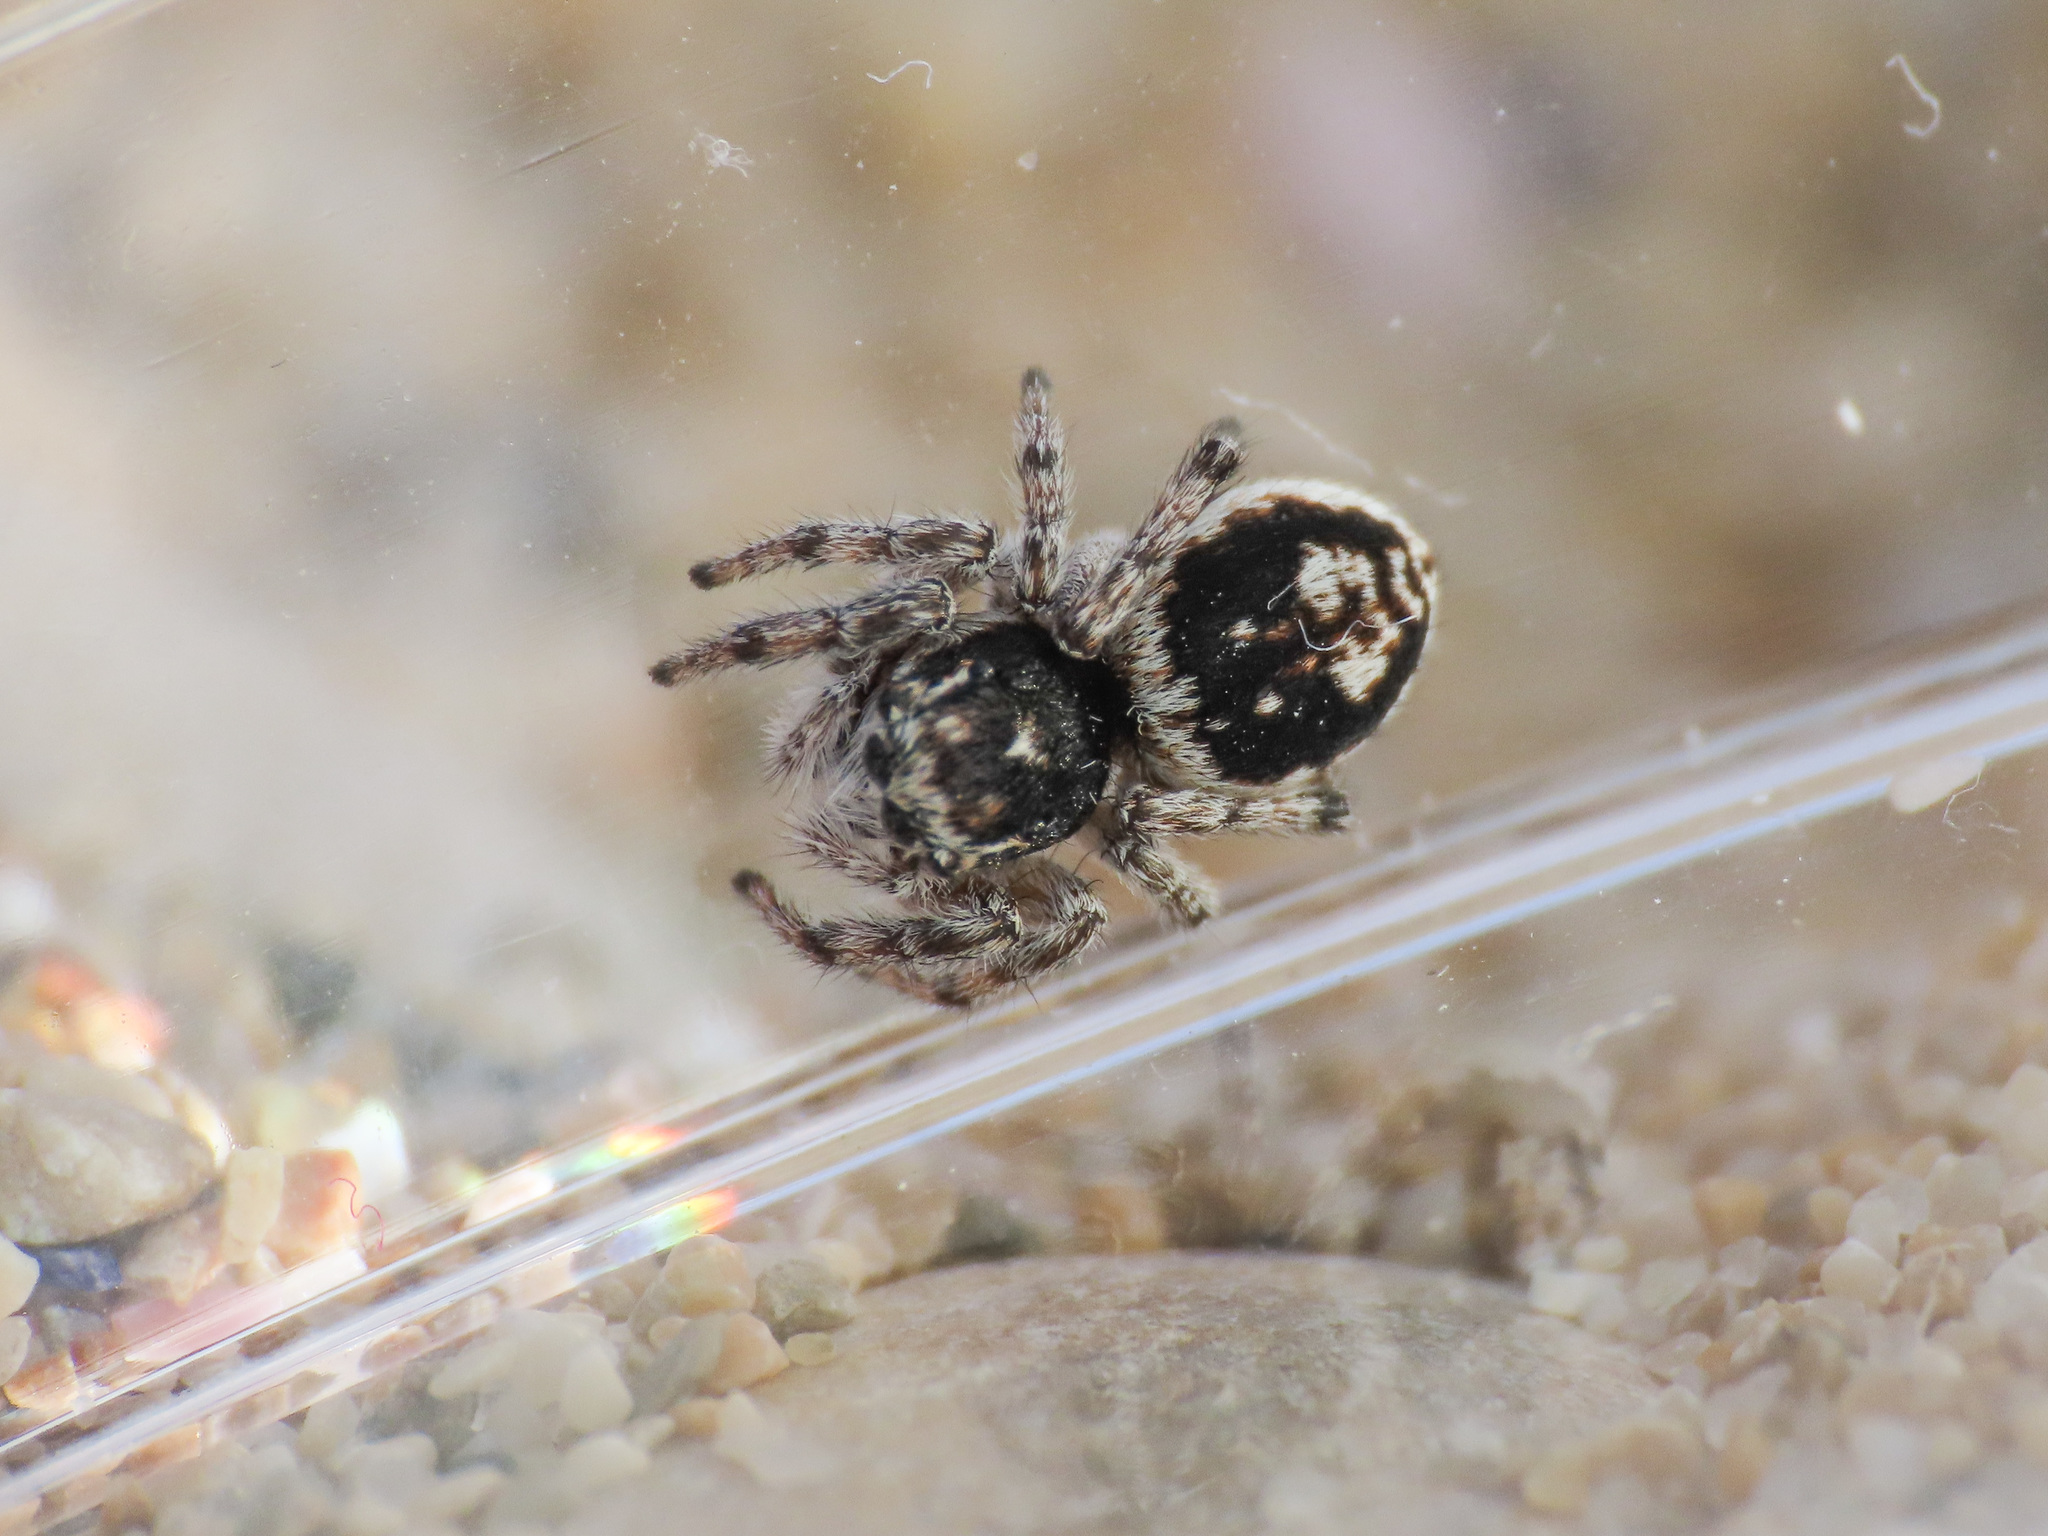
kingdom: Animalia
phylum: Arthropoda
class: Arachnida
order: Araneae
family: Salticidae
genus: Attulus
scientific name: Attulus damini
